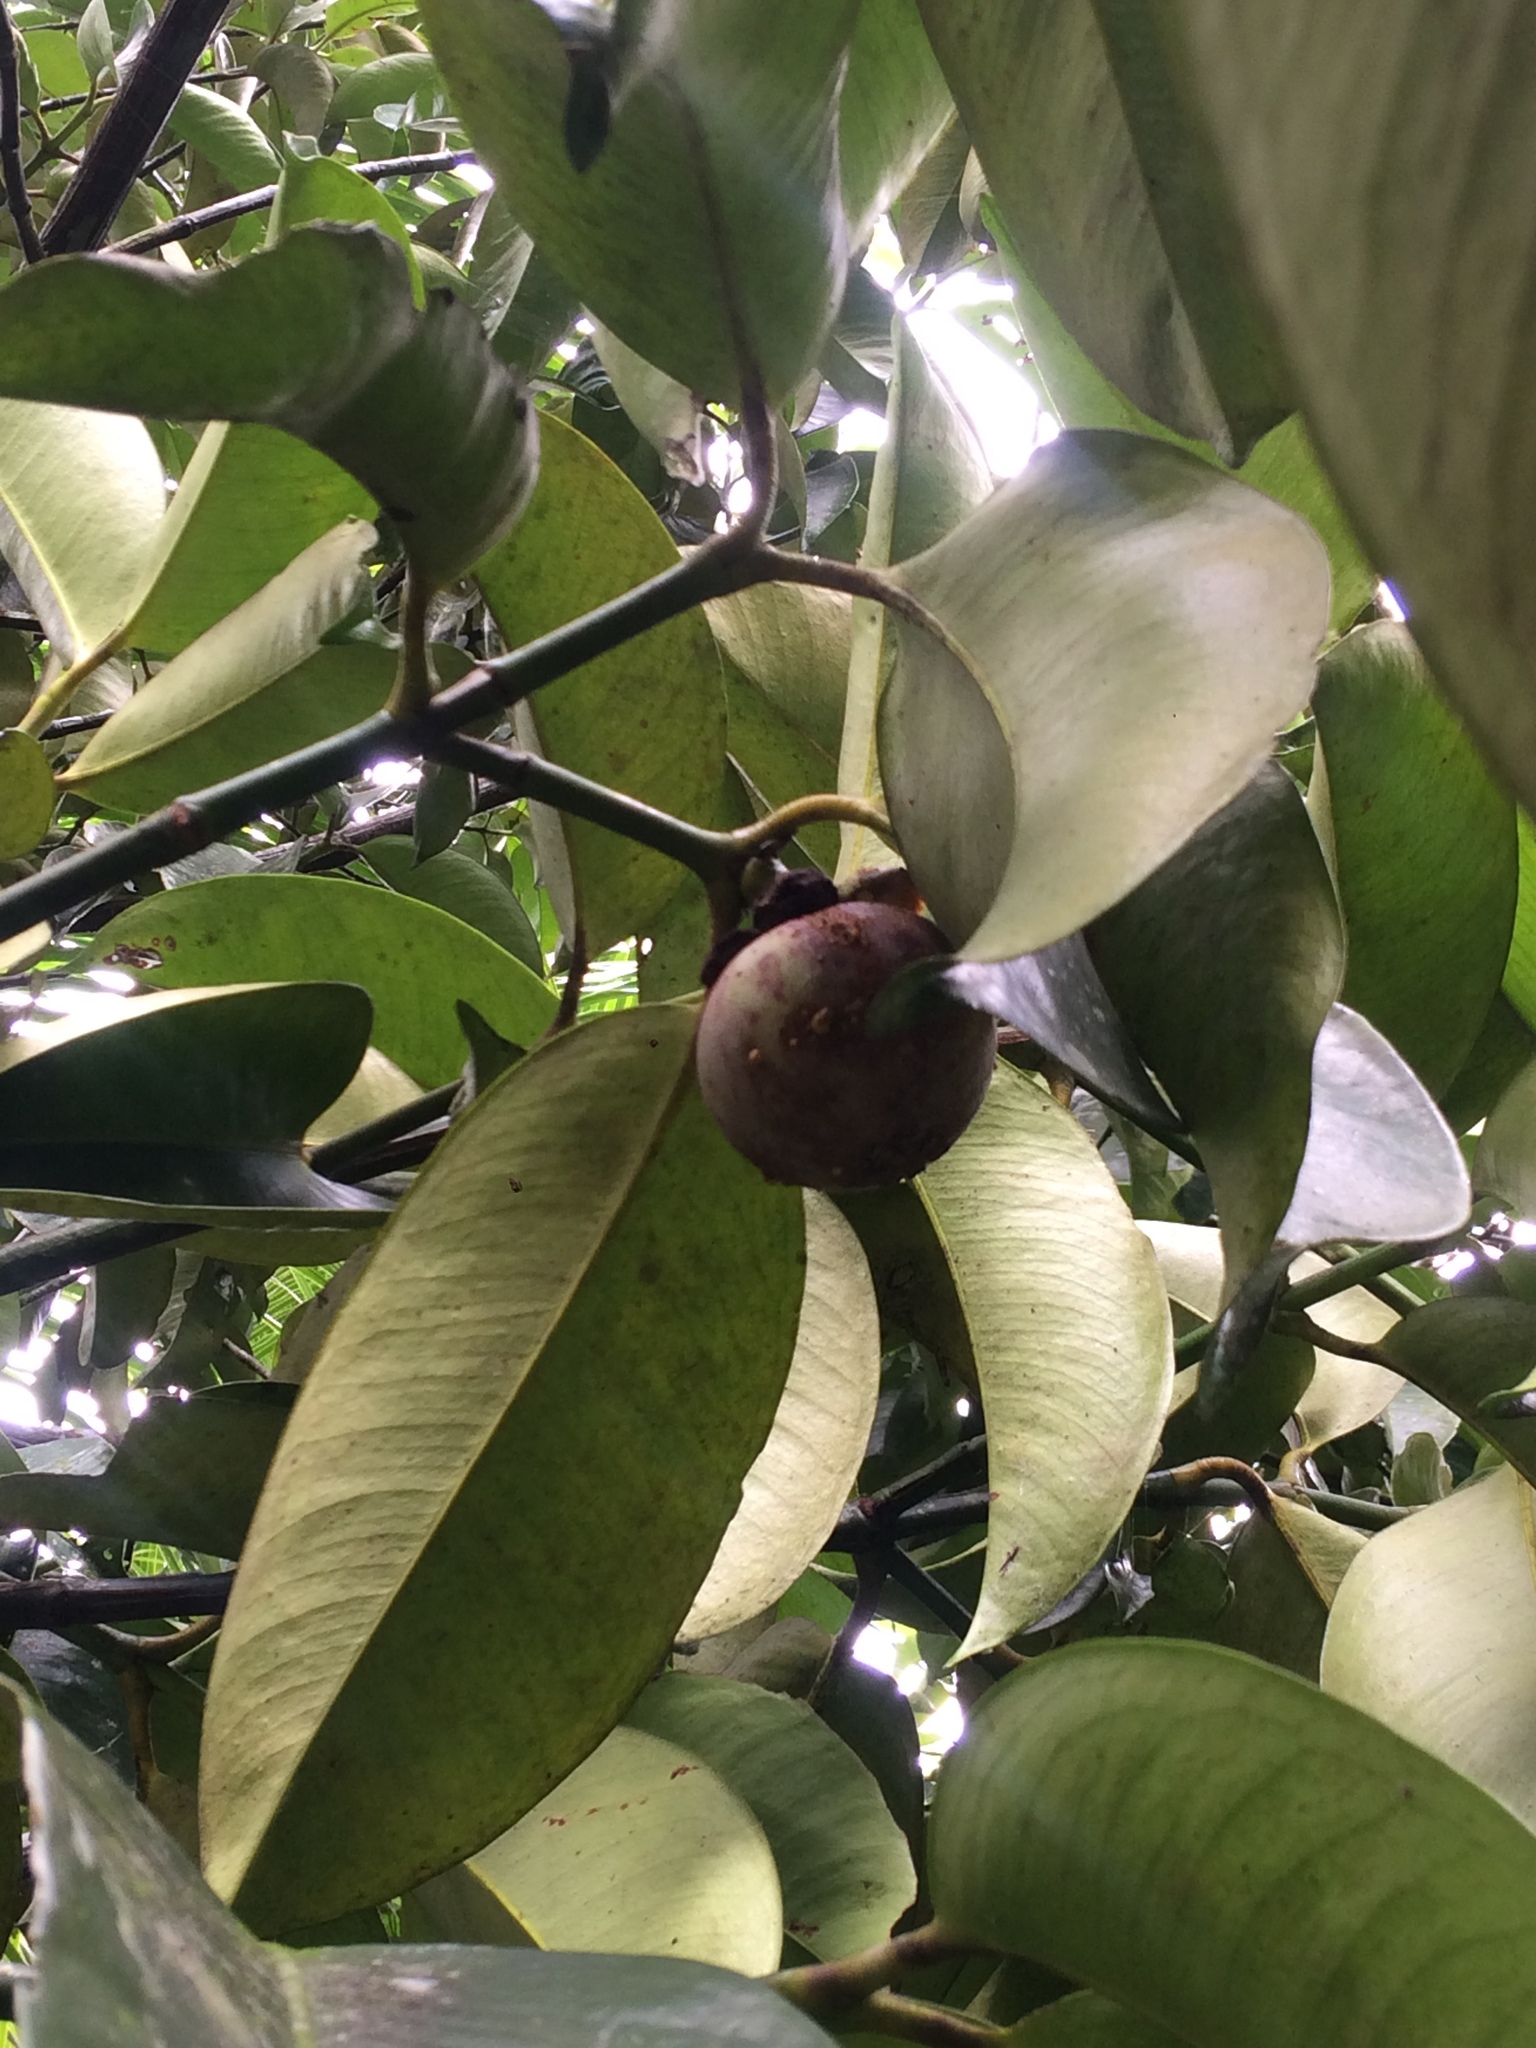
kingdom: Plantae
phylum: Tracheophyta
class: Magnoliopsida
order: Malpighiales
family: Clusiaceae
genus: Garcinia
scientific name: Garcinia mangostana
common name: Mangosteen
